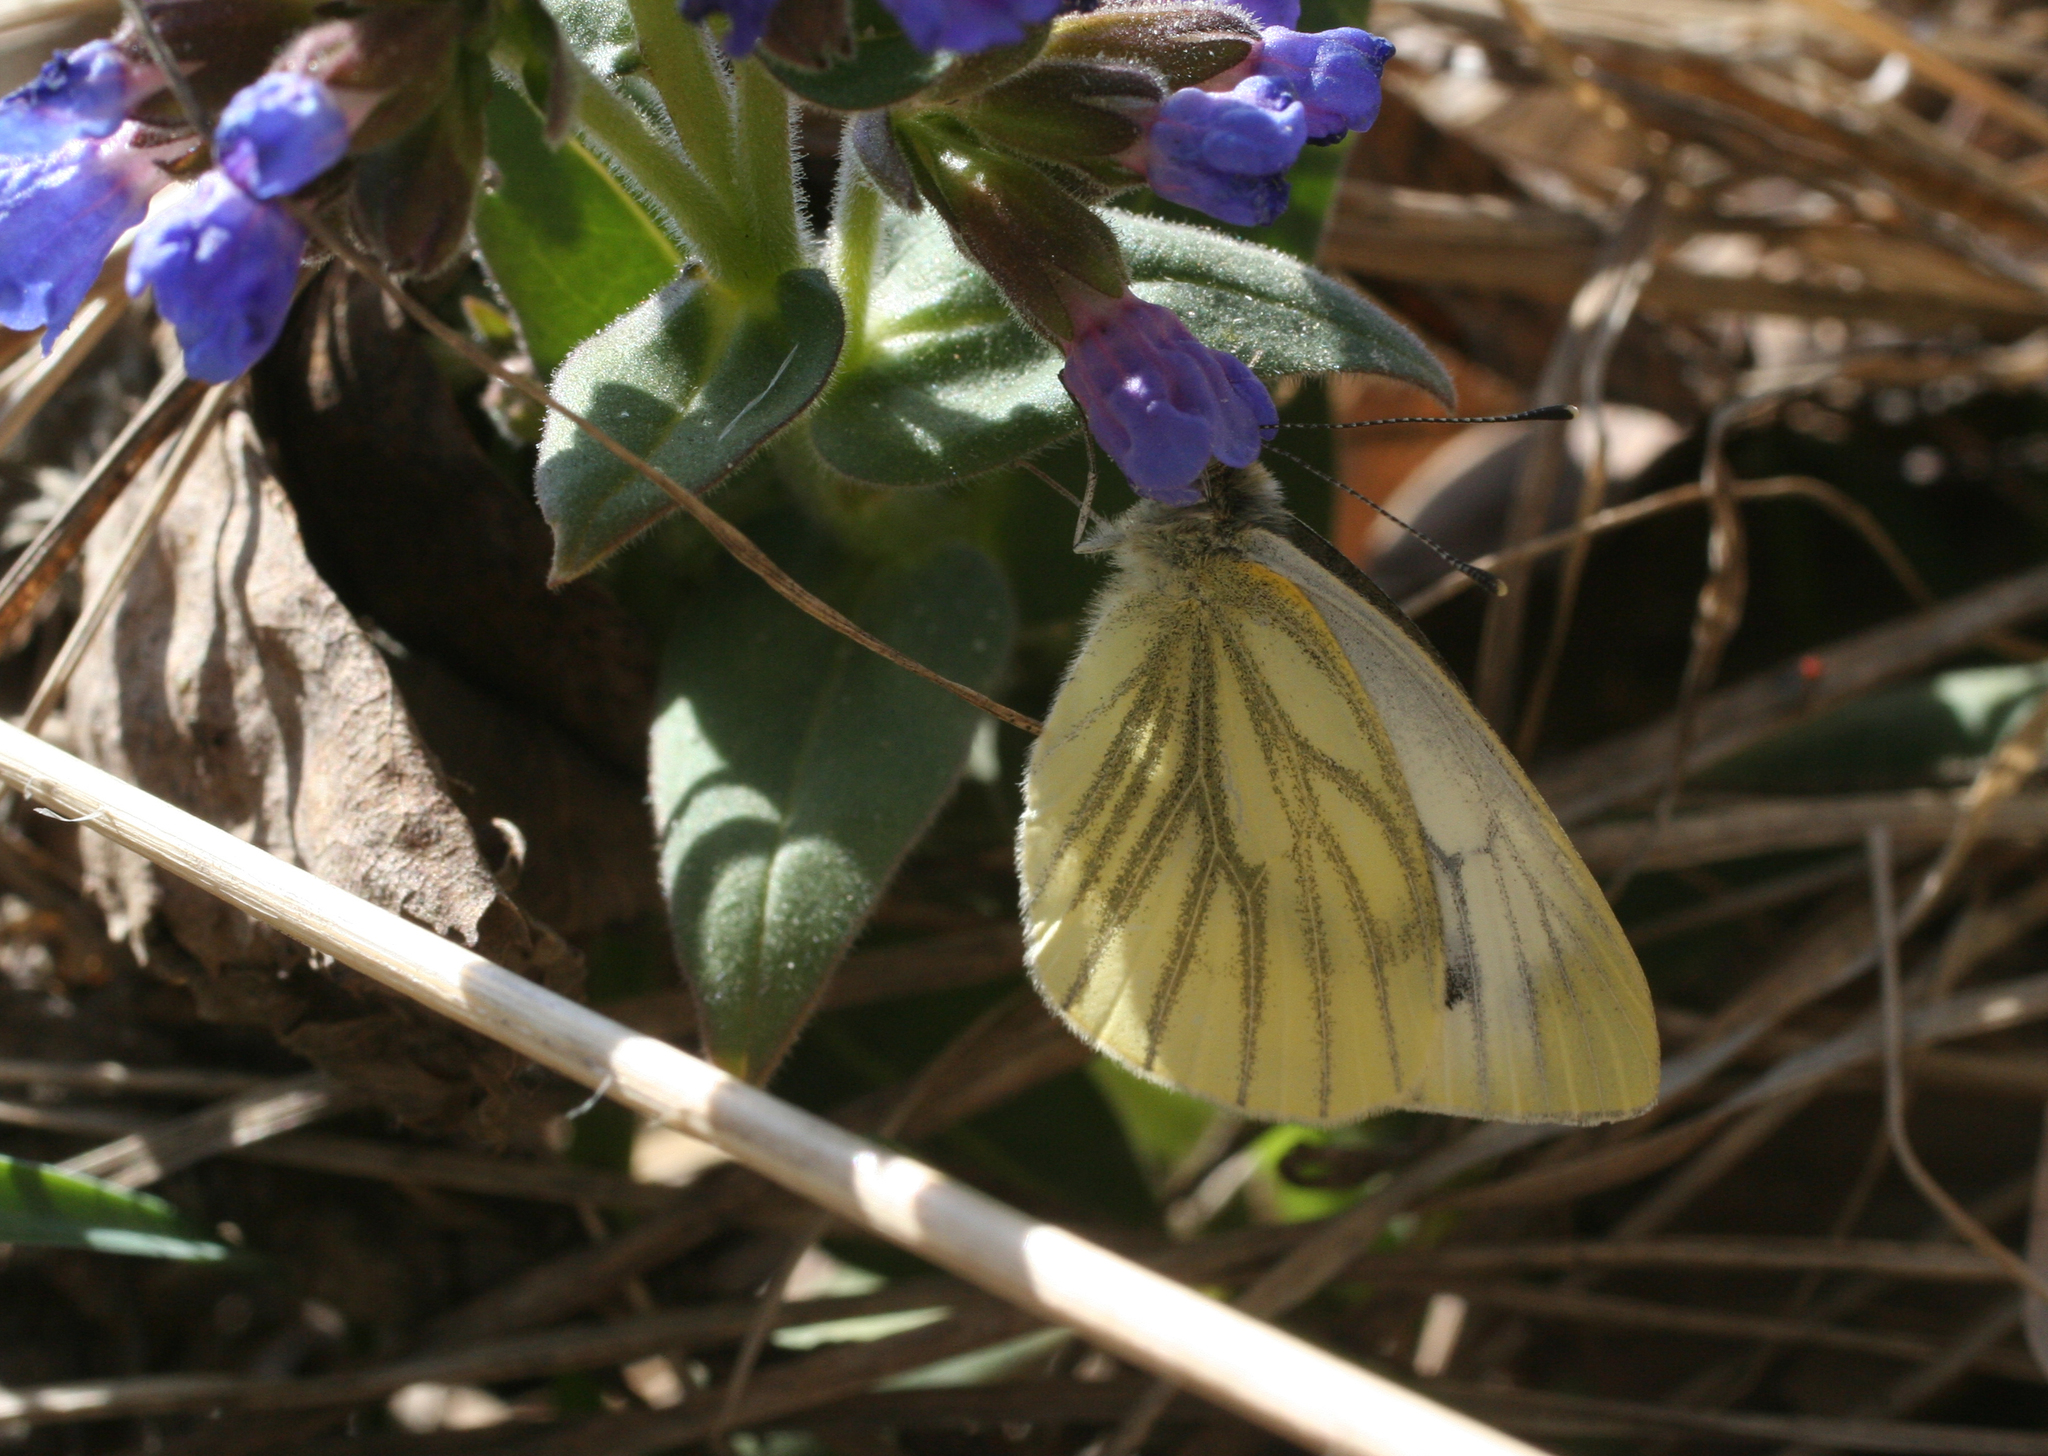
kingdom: Plantae
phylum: Tracheophyta
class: Magnoliopsida
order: Boraginales
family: Boraginaceae
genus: Pulmonaria
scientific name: Pulmonaria mollis
